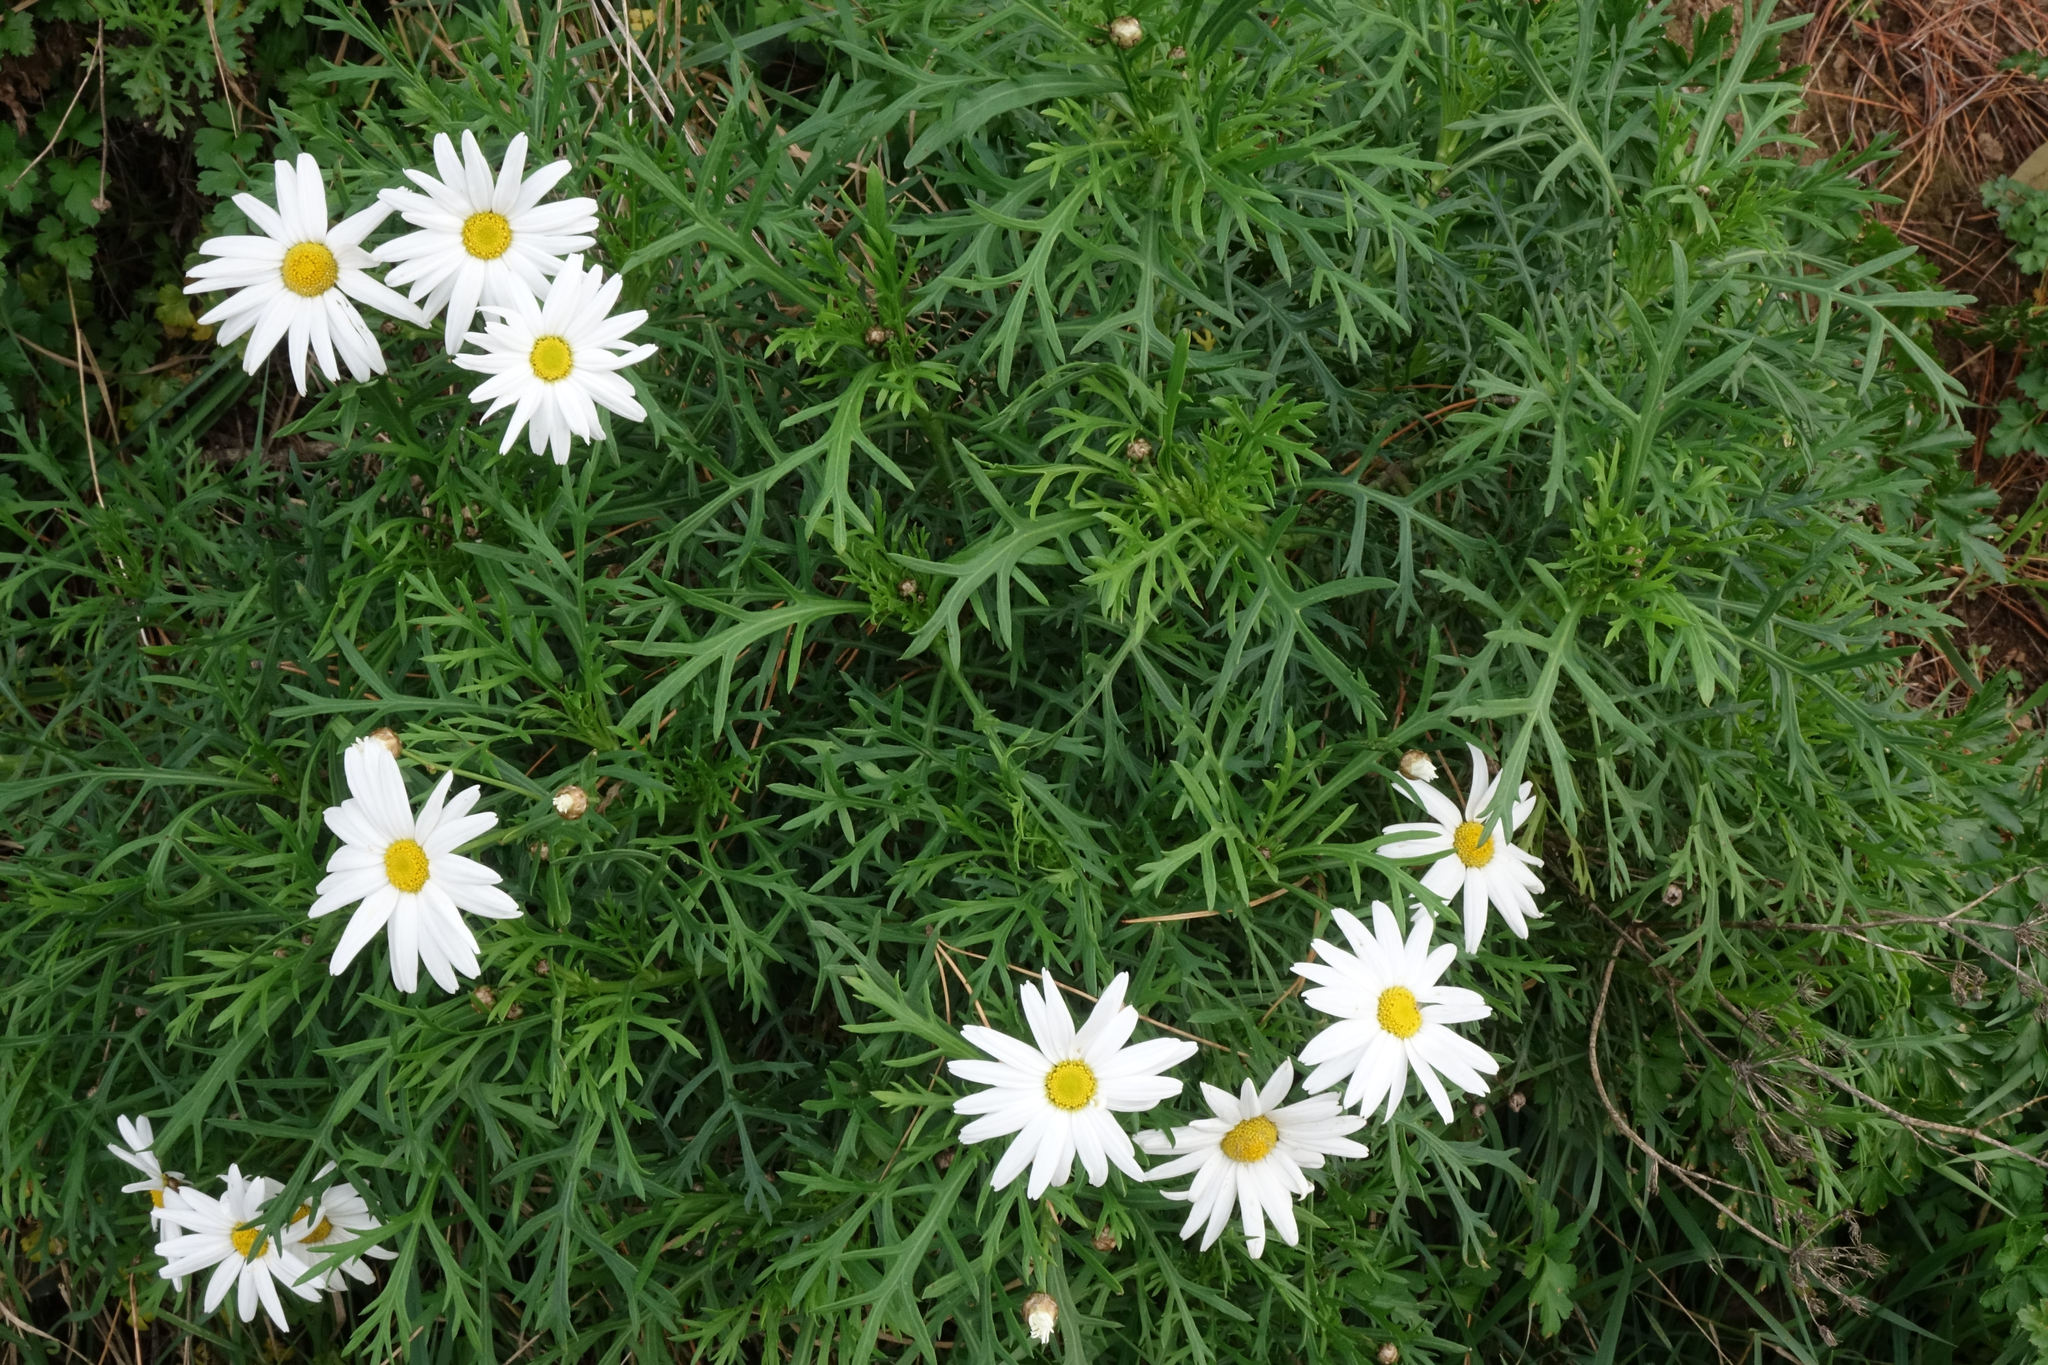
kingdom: Plantae
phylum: Tracheophyta
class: Magnoliopsida
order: Asterales
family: Asteraceae
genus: Argyranthemum
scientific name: Argyranthemum frutescens
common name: Paris daisy
